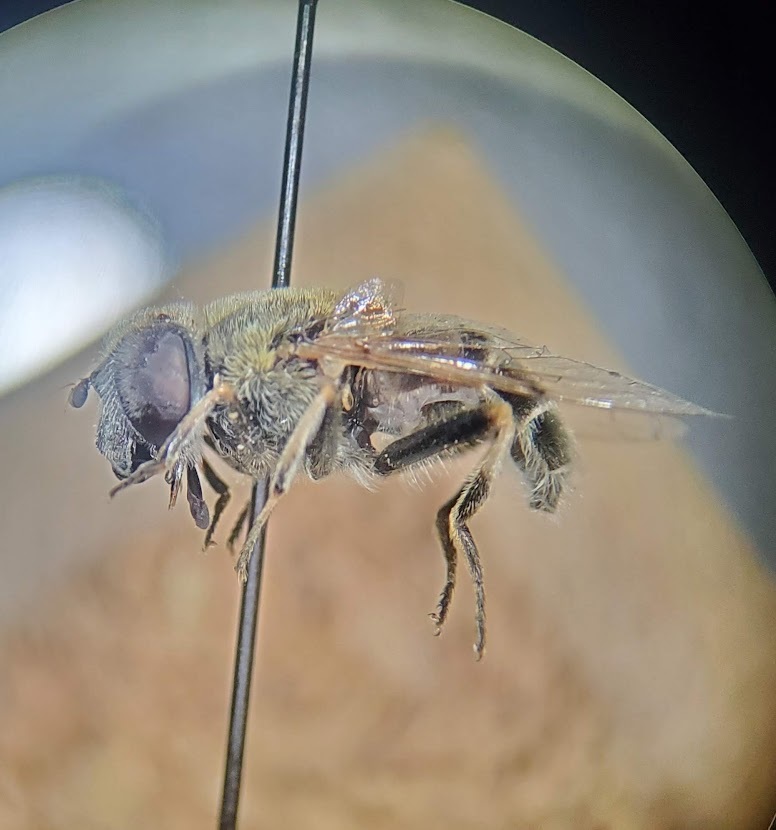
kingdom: Animalia
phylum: Arthropoda
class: Insecta
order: Diptera
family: Syrphidae
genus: Eristalis
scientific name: Eristalis stipator
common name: Yellow-shouldered drone fly
